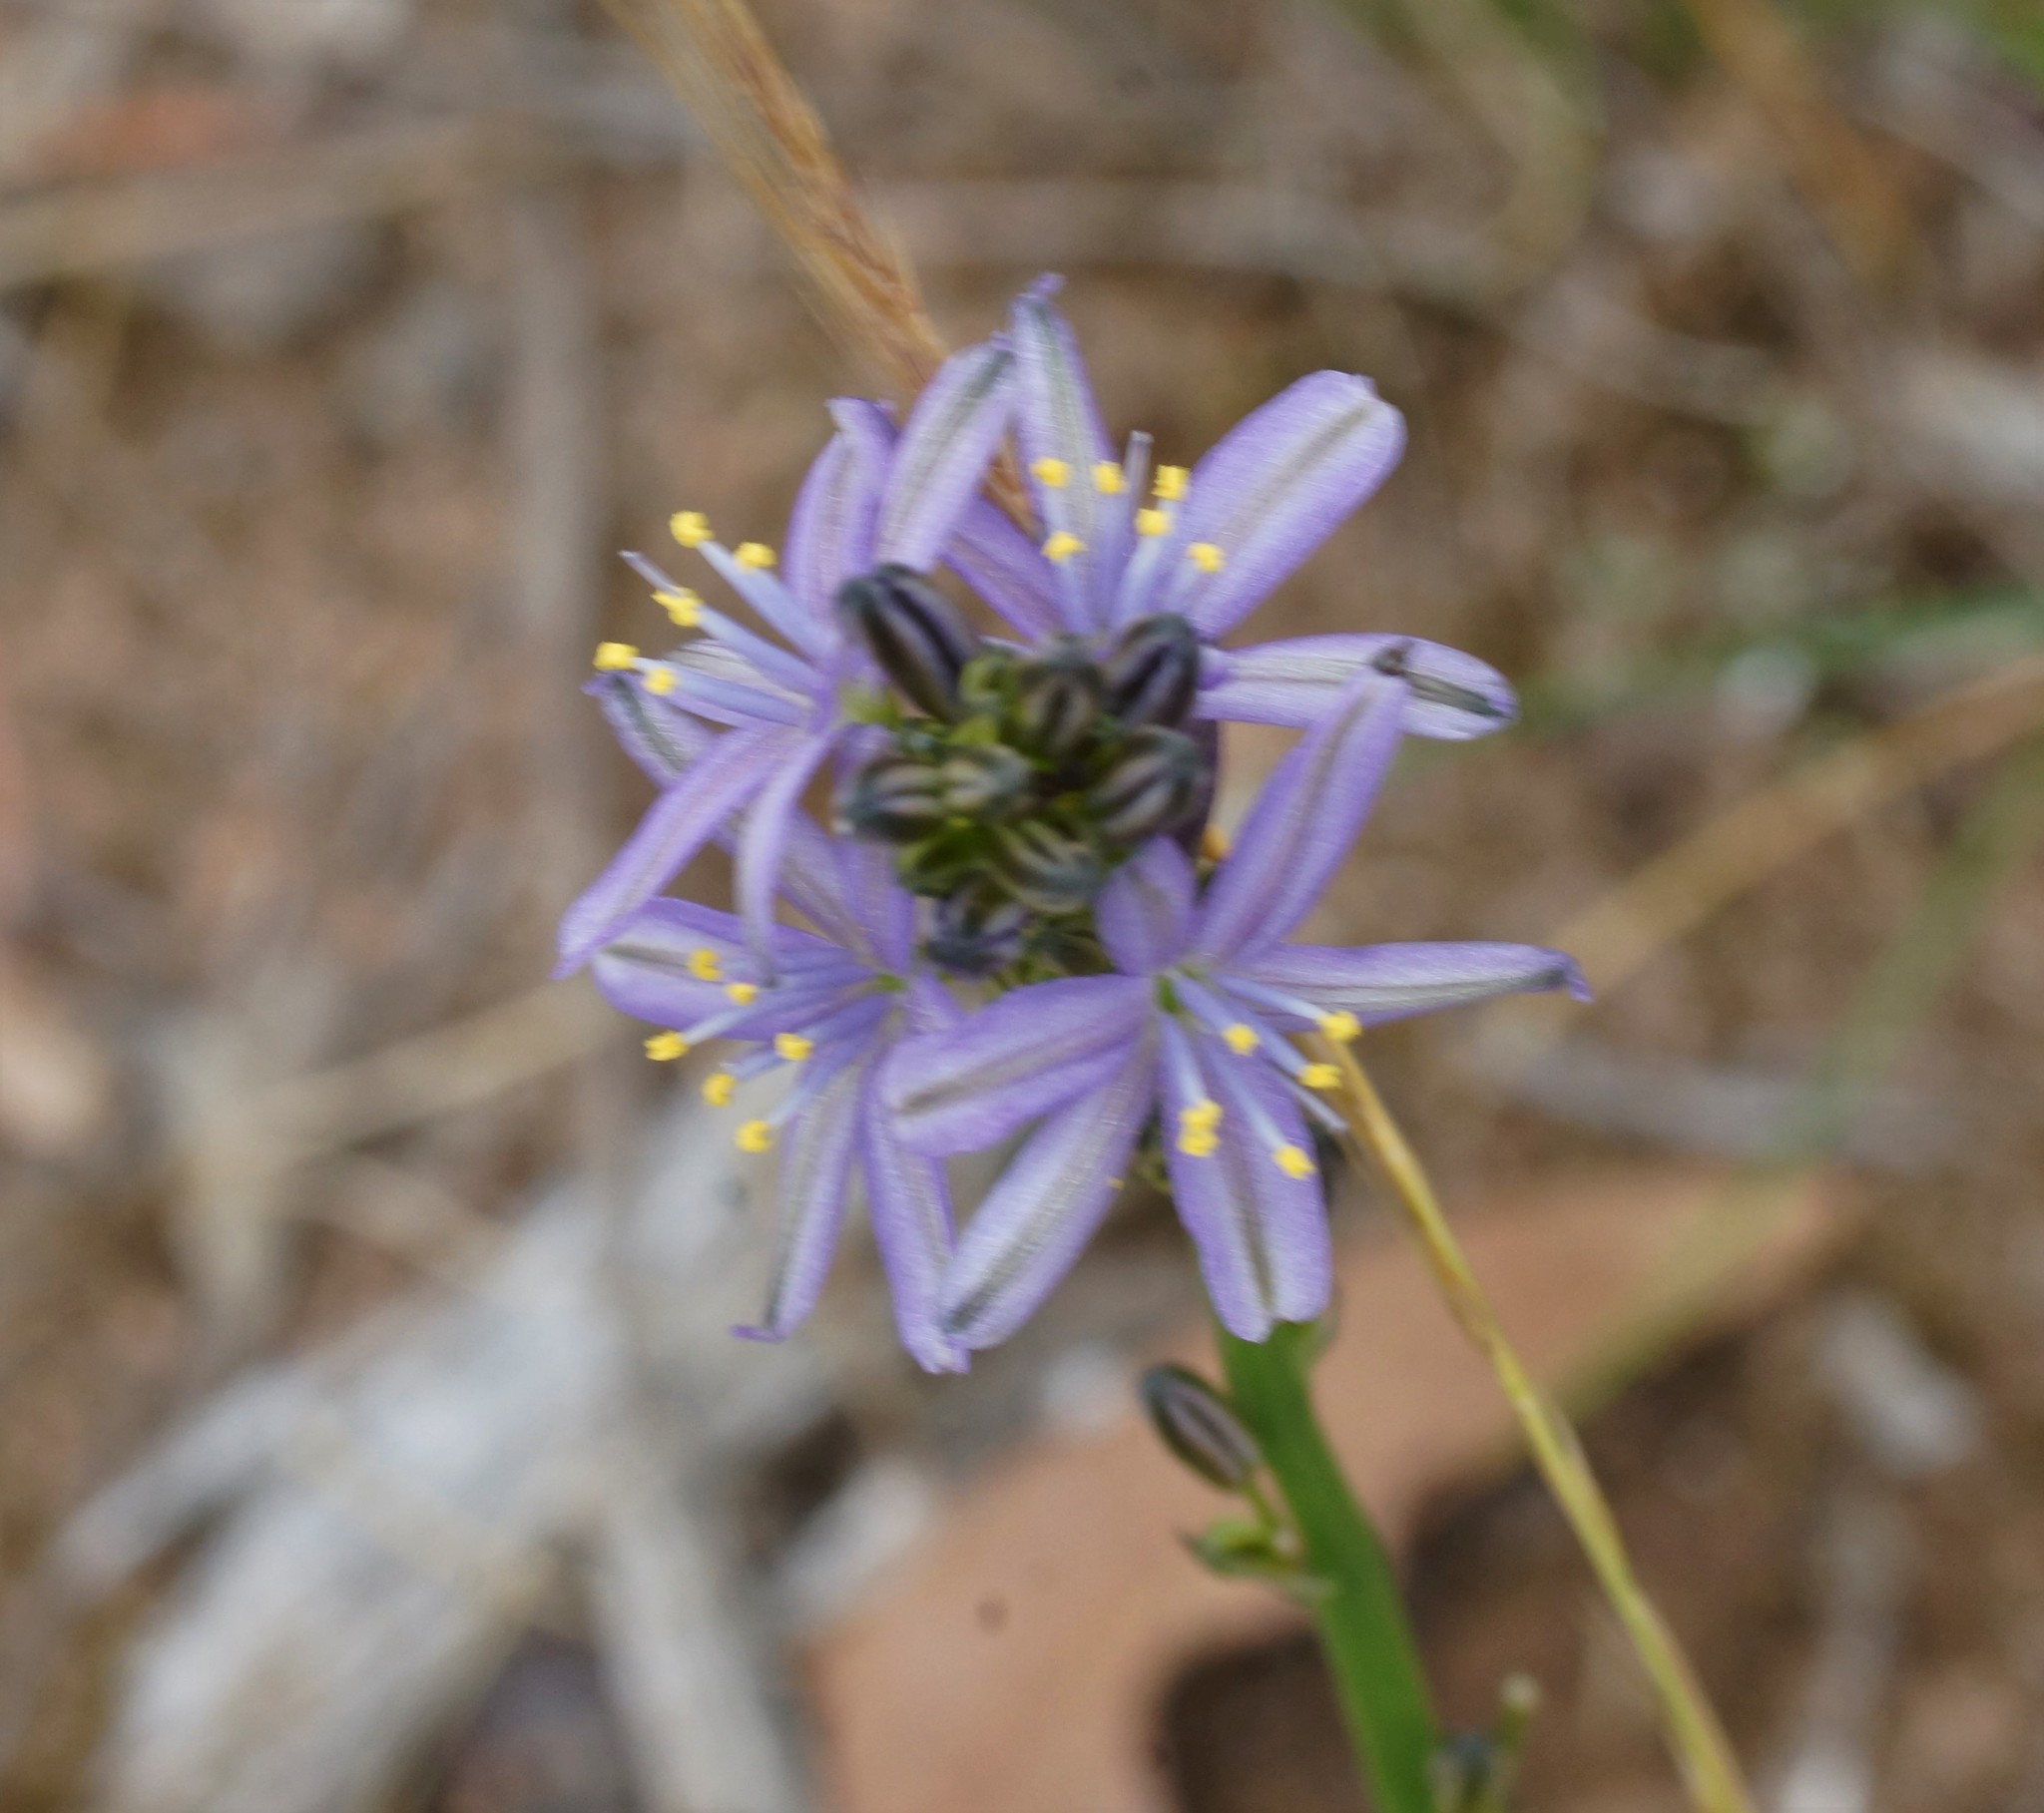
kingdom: Plantae
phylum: Tracheophyta
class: Liliopsida
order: Asparagales
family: Asphodelaceae
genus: Caesia
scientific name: Caesia calliantha
